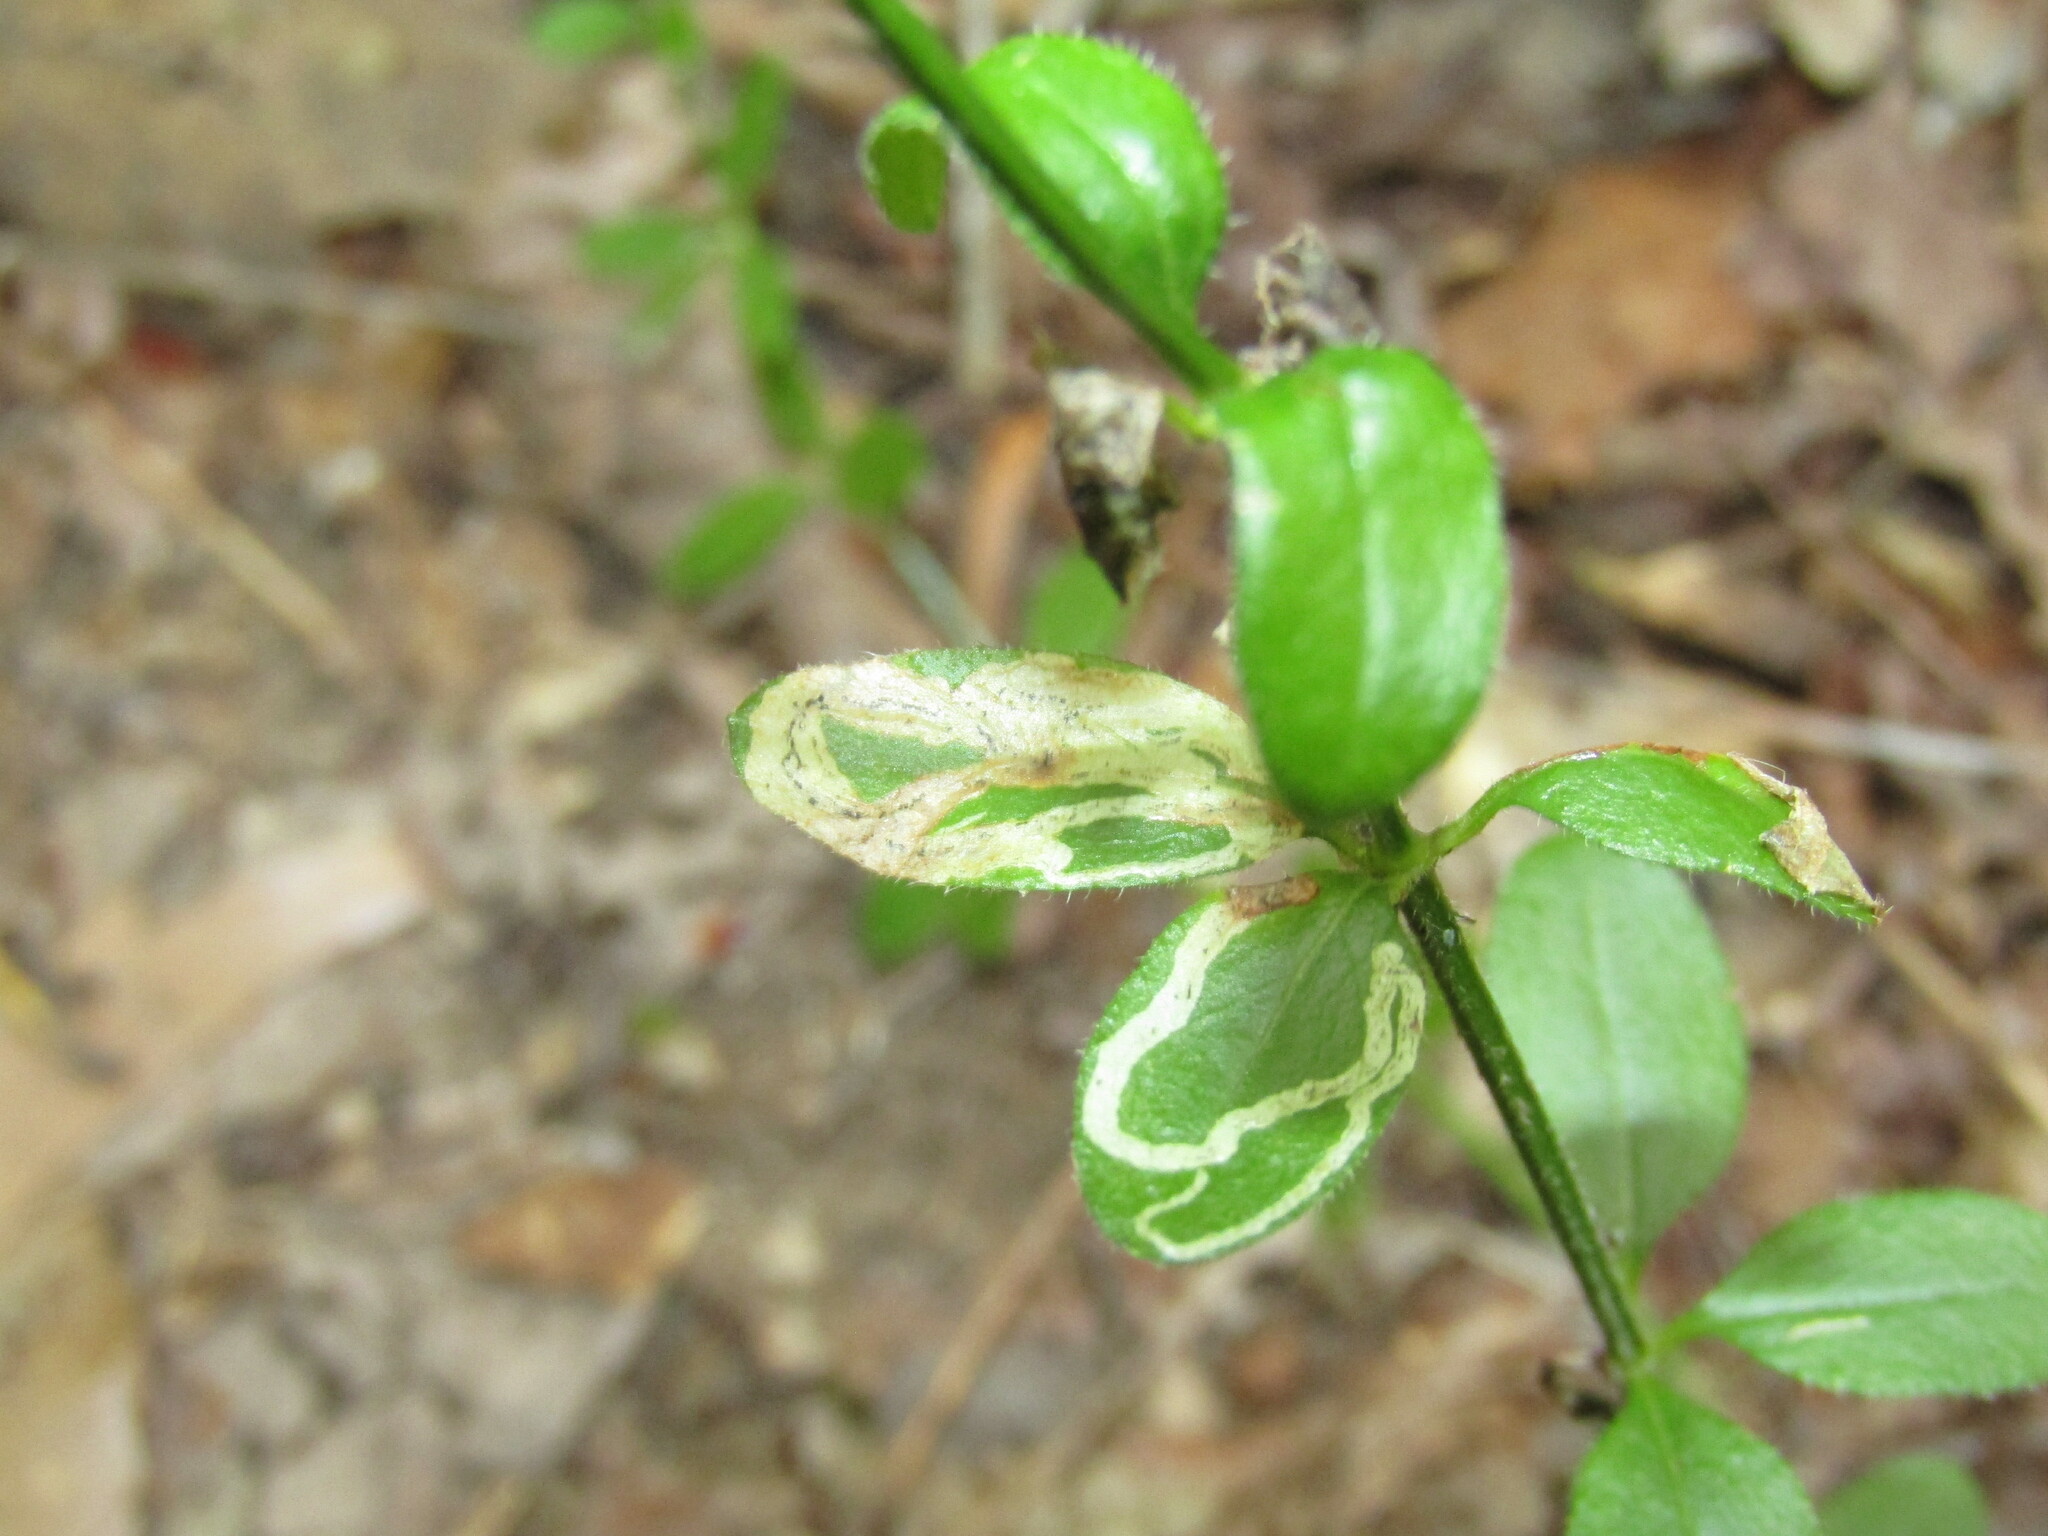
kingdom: Animalia
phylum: Arthropoda
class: Insecta
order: Diptera
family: Agromyzidae
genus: Liriomyza
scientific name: Liriomyza galiivora
